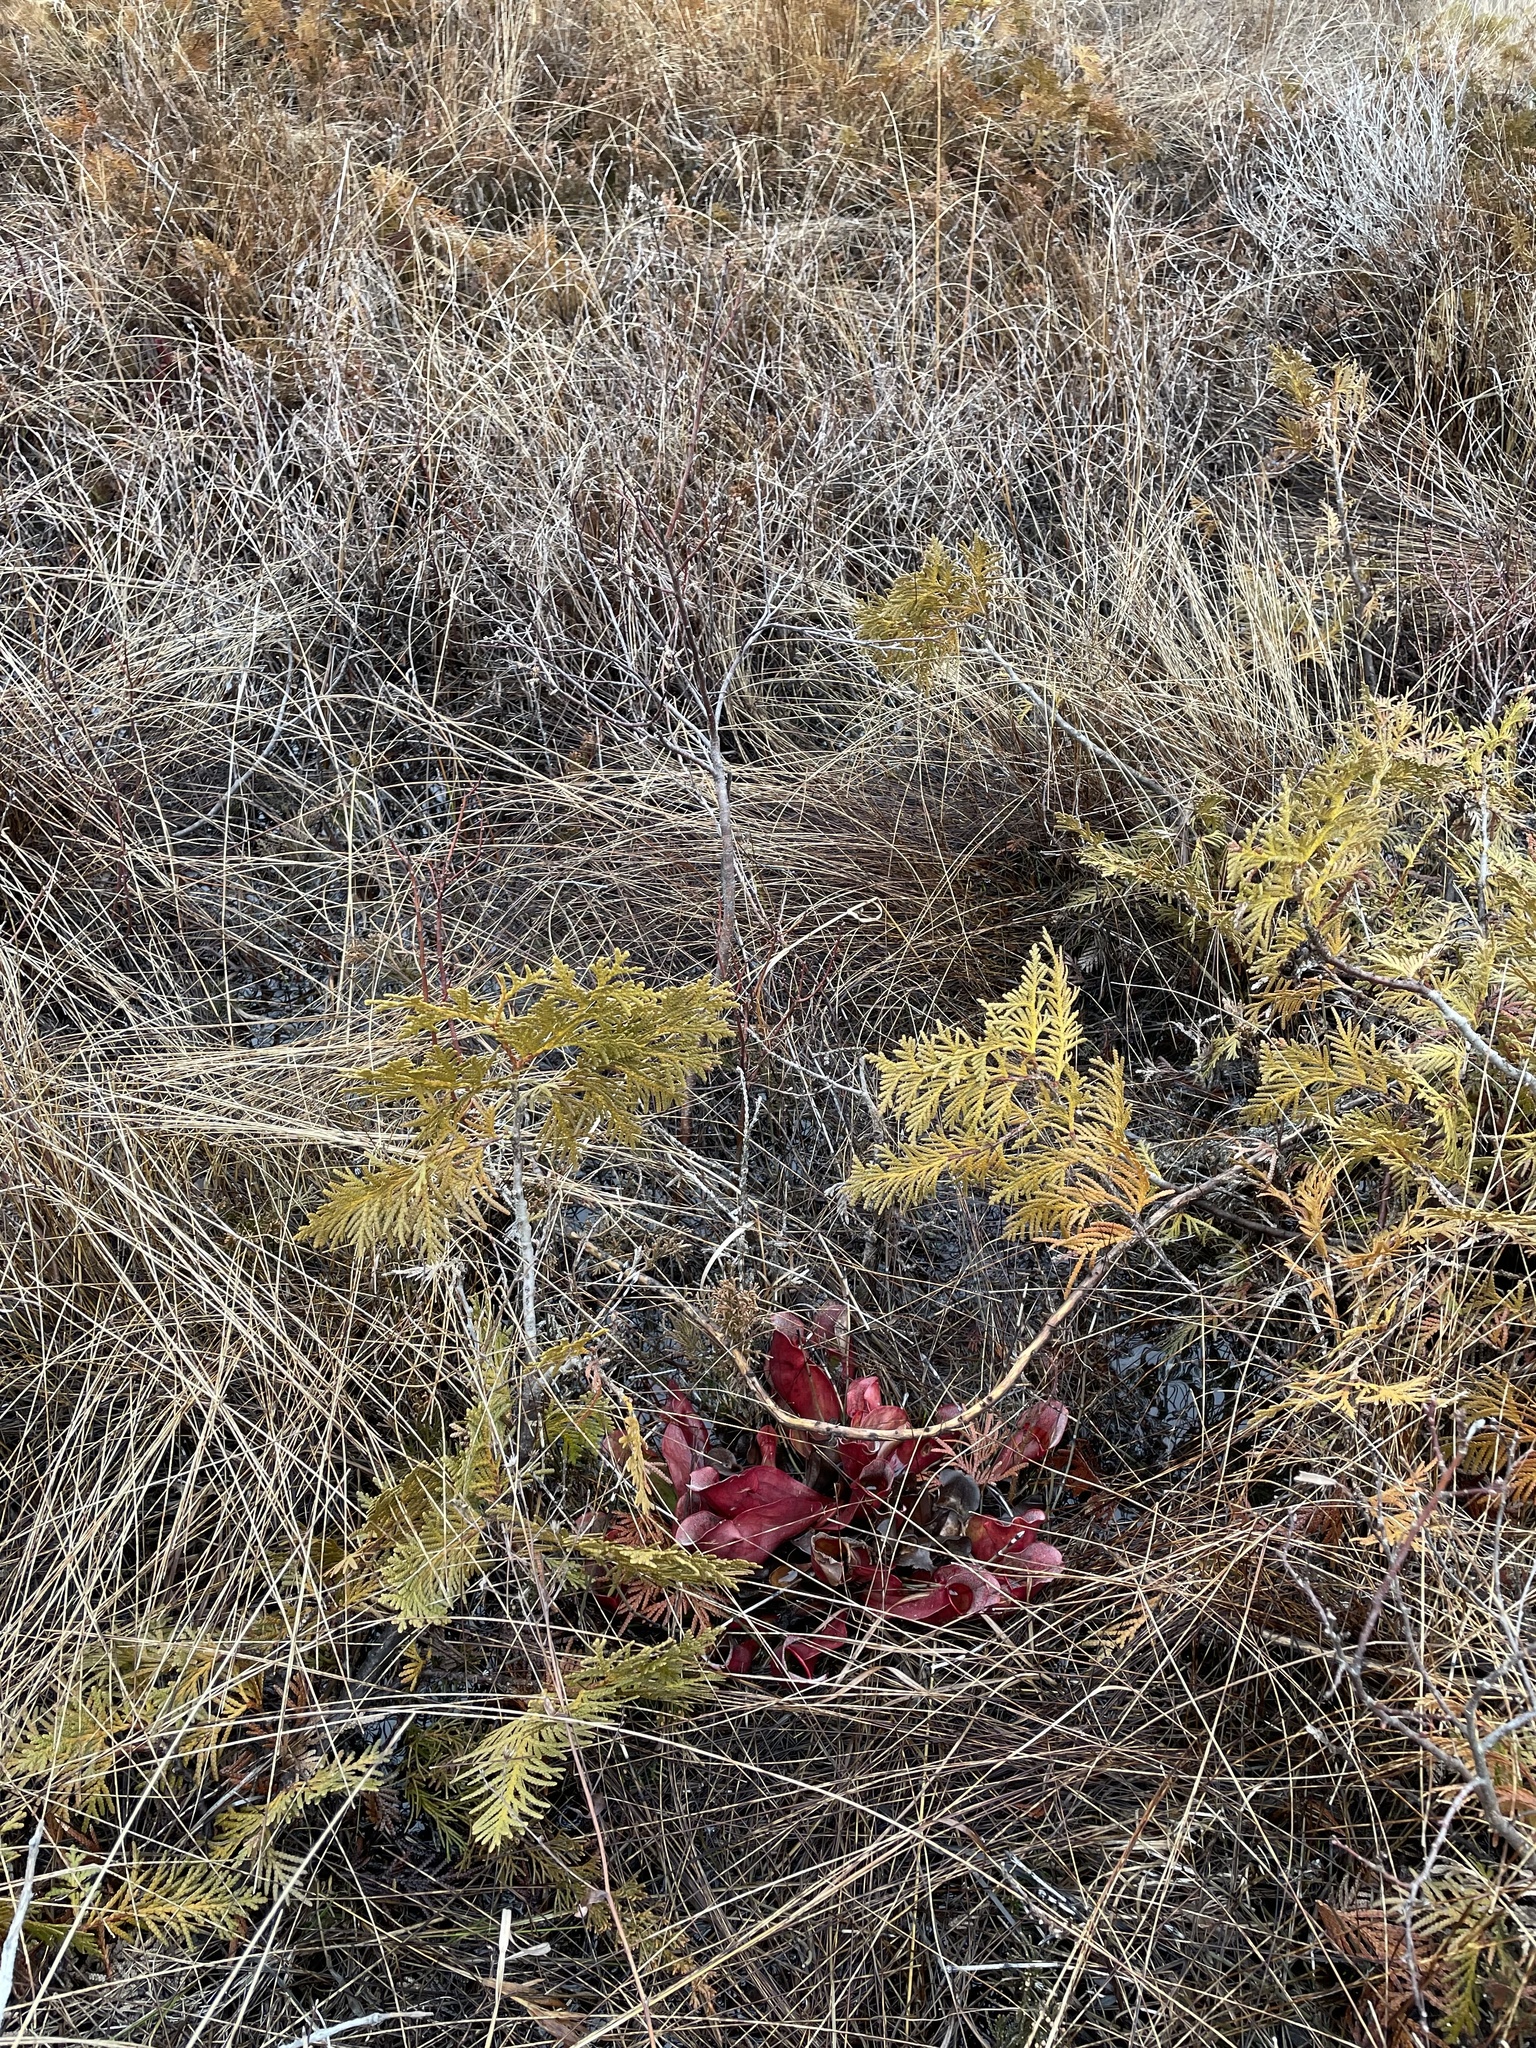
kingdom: Plantae
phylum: Tracheophyta
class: Magnoliopsida
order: Ericales
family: Sarraceniaceae
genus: Sarracenia
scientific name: Sarracenia purpurea
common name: Pitcherplant
